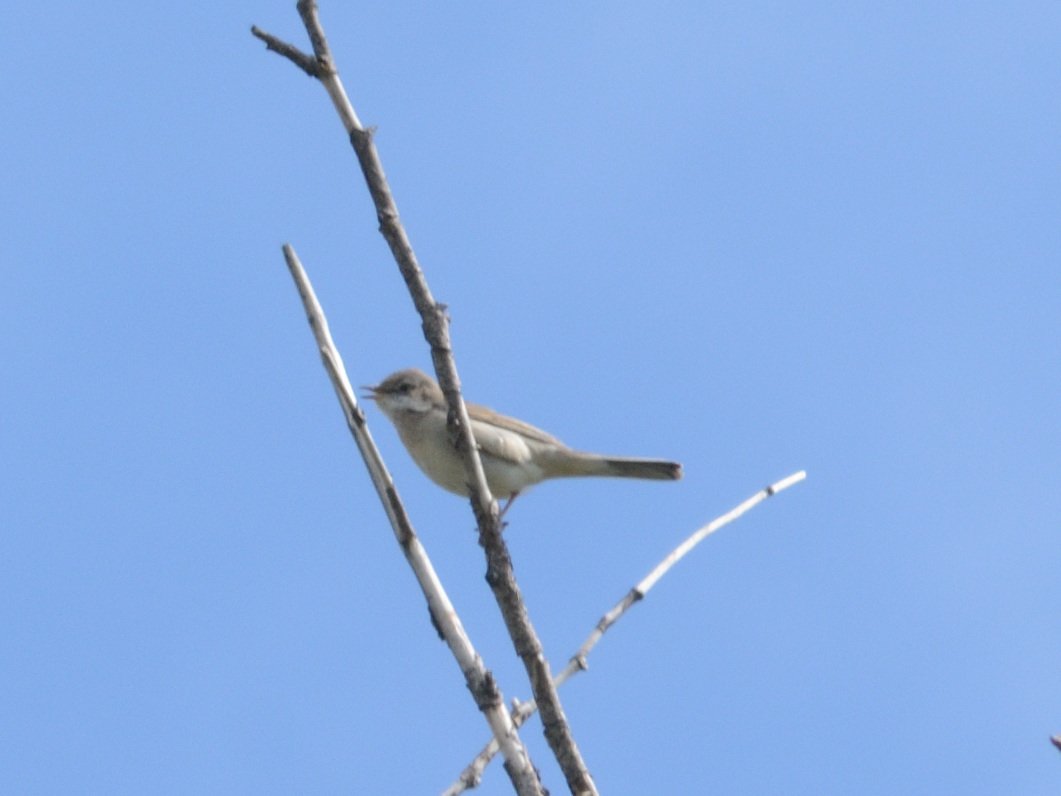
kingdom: Animalia
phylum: Chordata
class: Aves
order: Passeriformes
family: Sylviidae
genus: Sylvia
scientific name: Sylvia communis
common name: Common whitethroat
